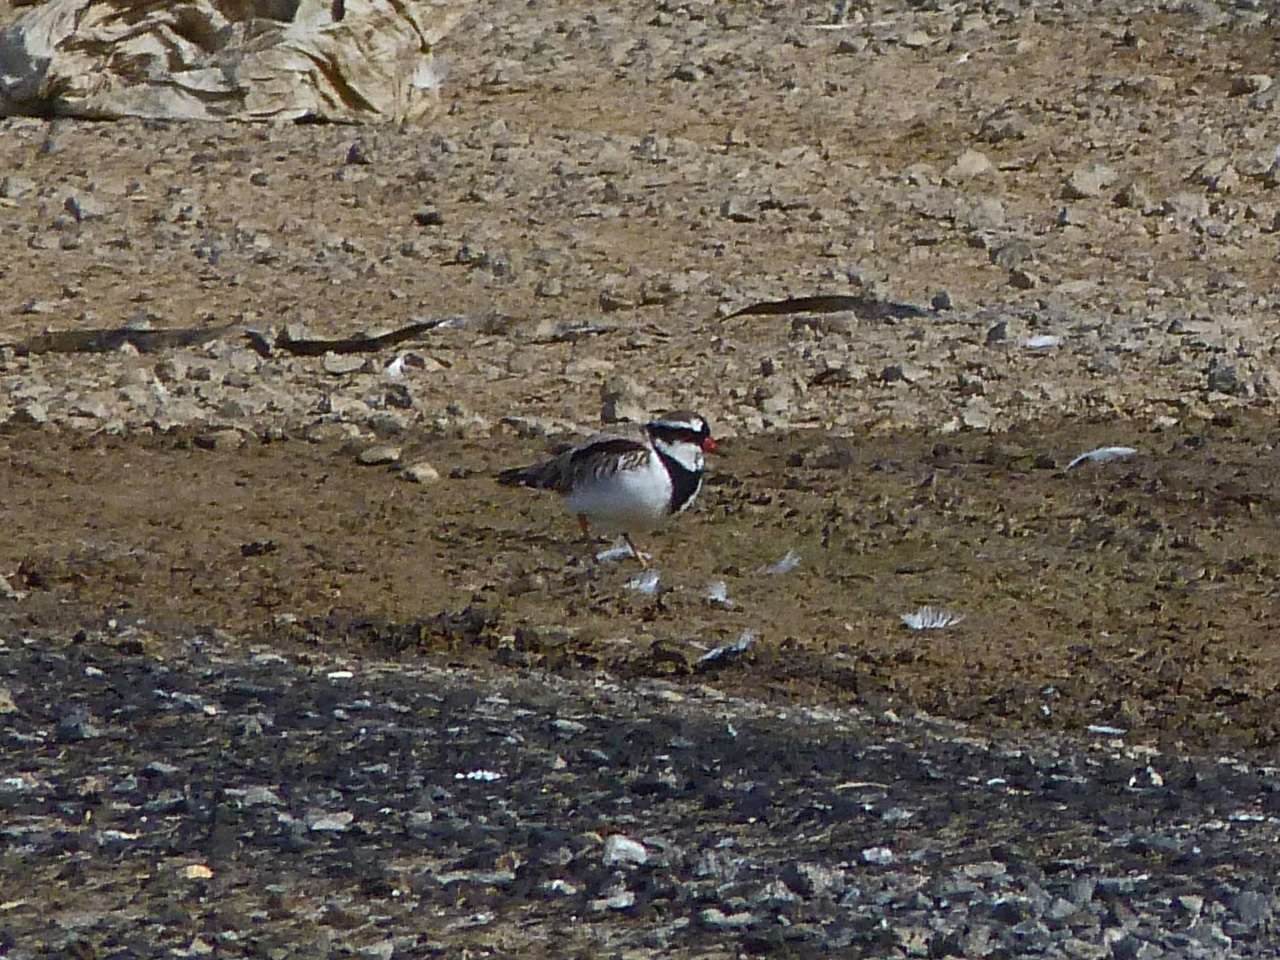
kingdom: Animalia
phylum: Chordata
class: Aves
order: Charadriiformes
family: Charadriidae
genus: Elseyornis
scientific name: Elseyornis melanops
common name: Black-fronted dotterel
